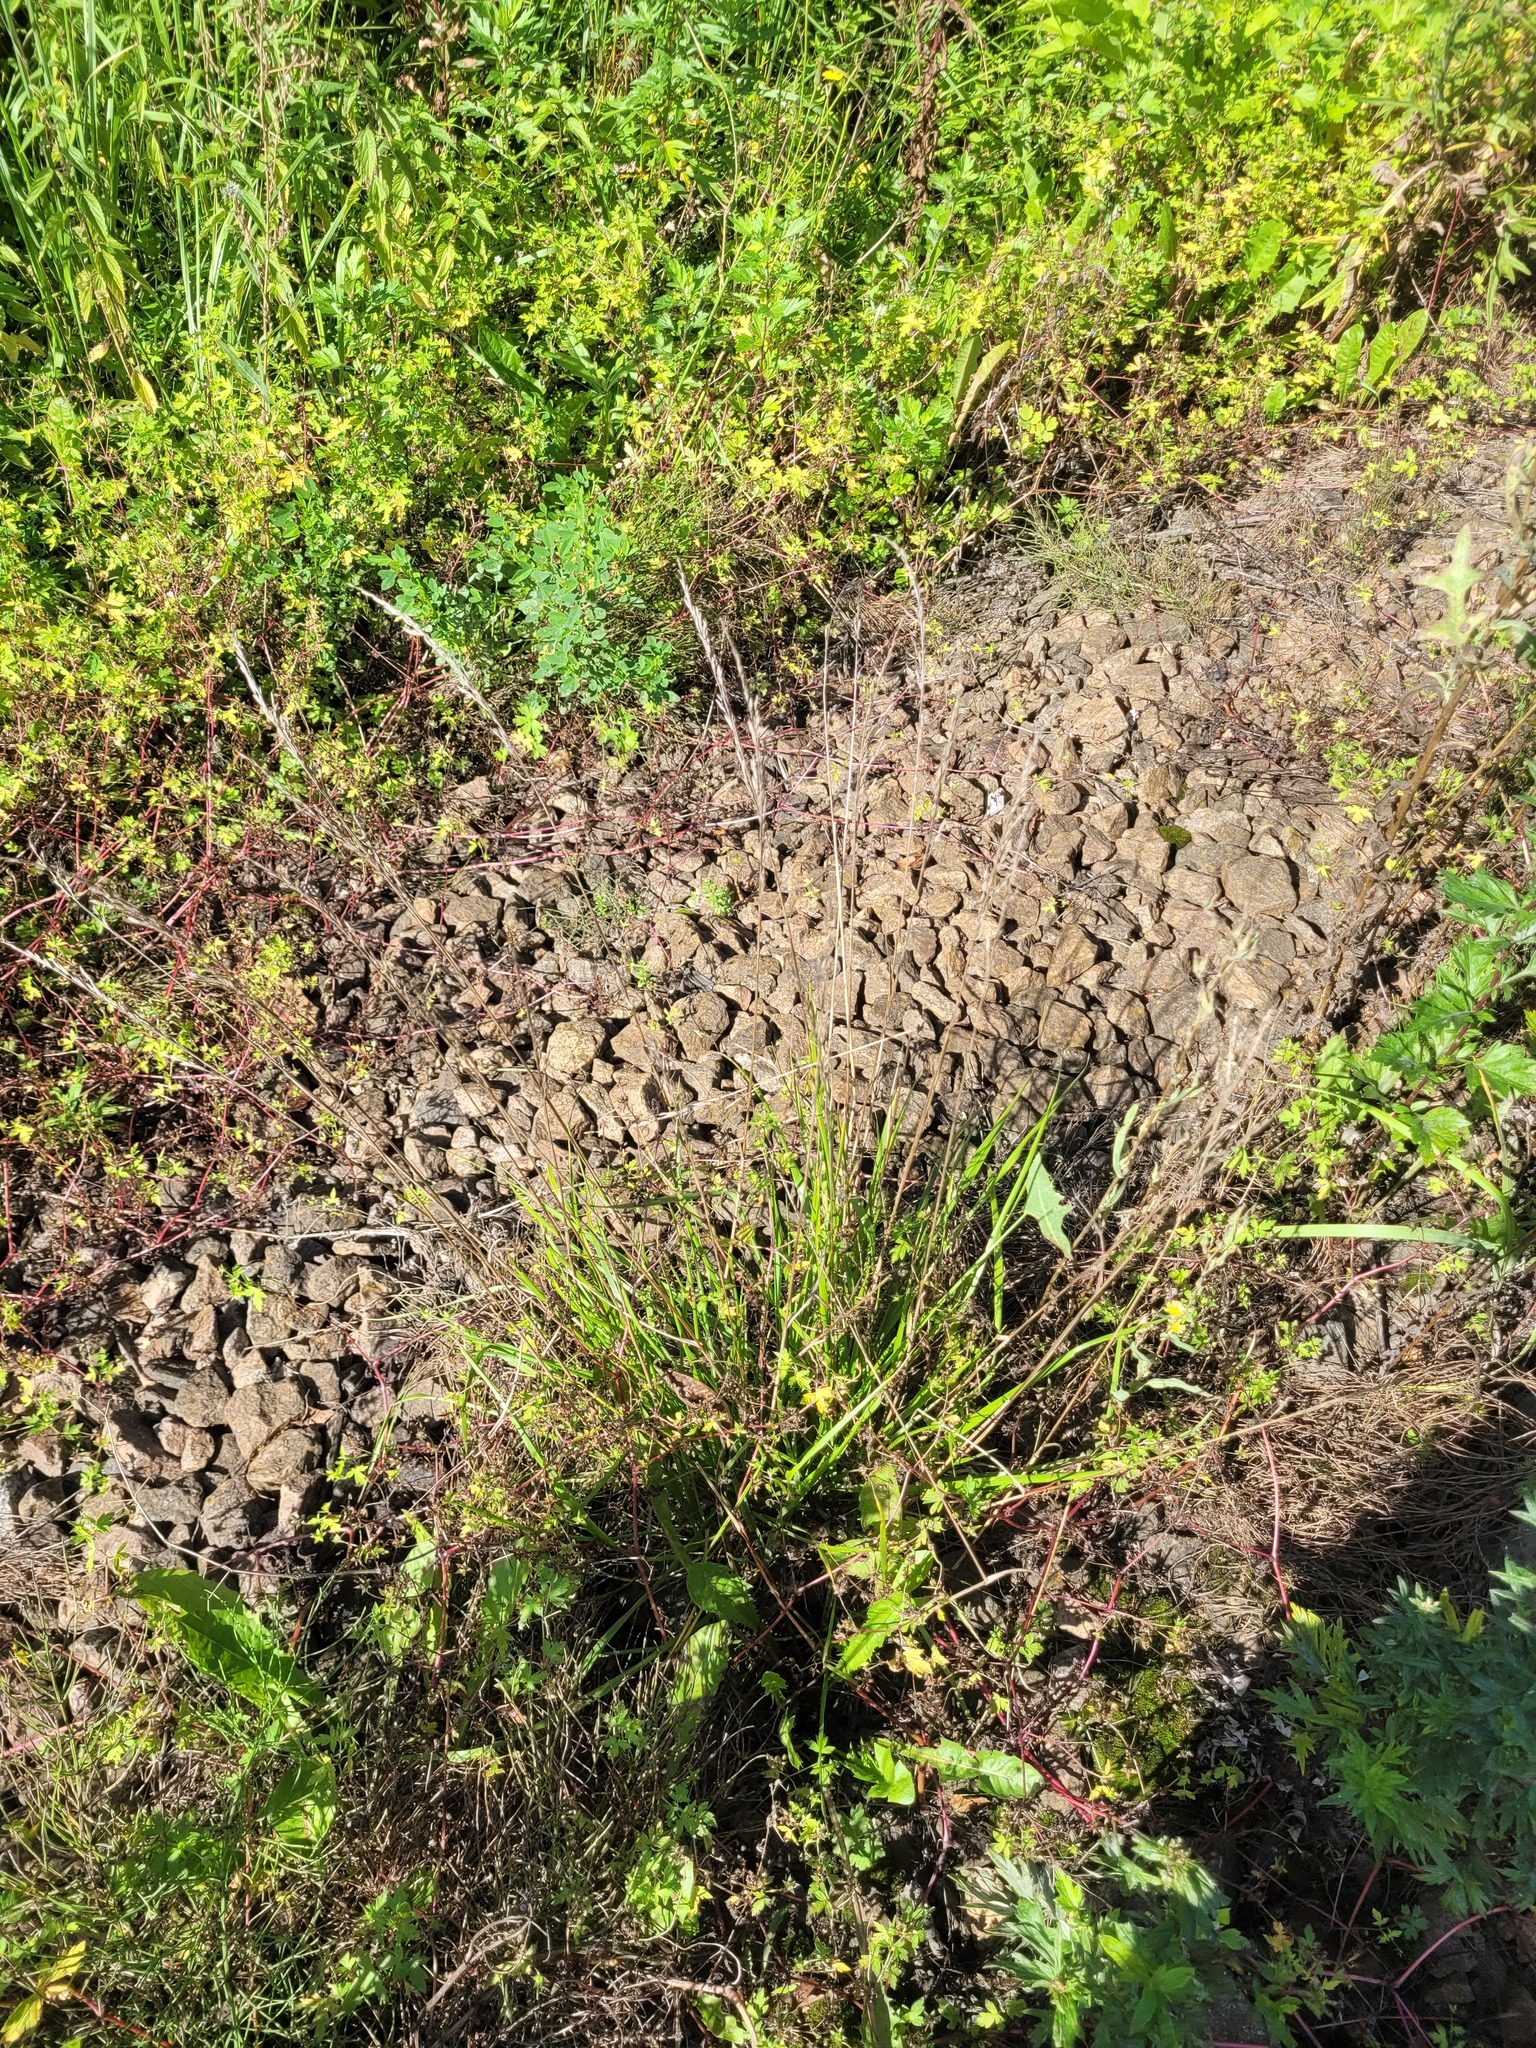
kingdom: Plantae
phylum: Tracheophyta
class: Liliopsida
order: Poales
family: Poaceae
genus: Lolium
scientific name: Lolium pratense
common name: Dover grass
